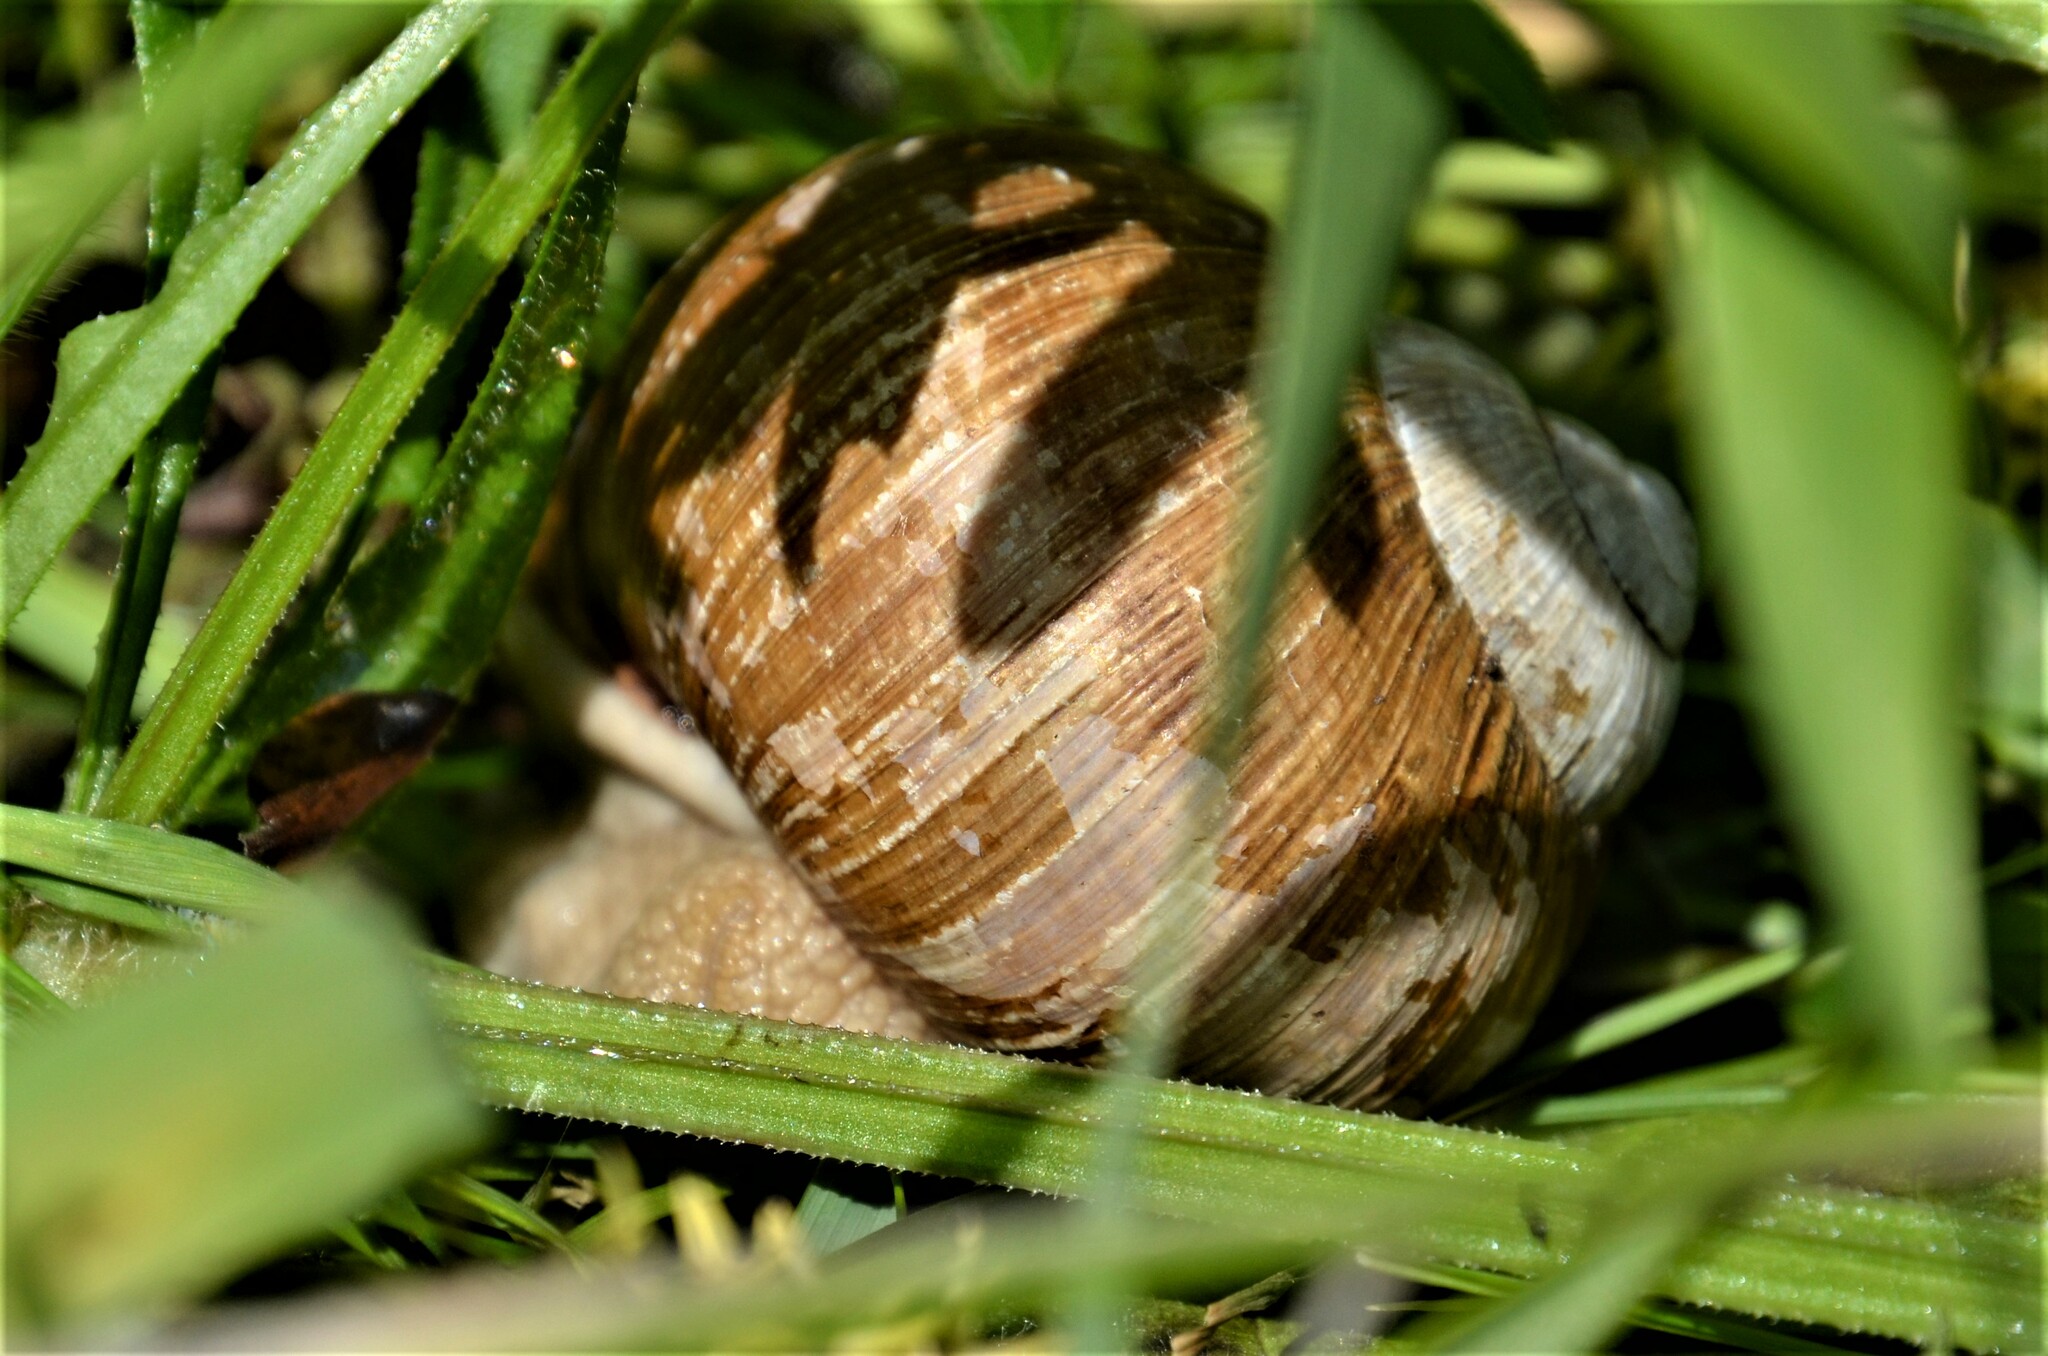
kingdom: Animalia
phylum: Mollusca
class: Gastropoda
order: Stylommatophora
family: Helicidae
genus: Helix
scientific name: Helix pomatia
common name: Roman snail
